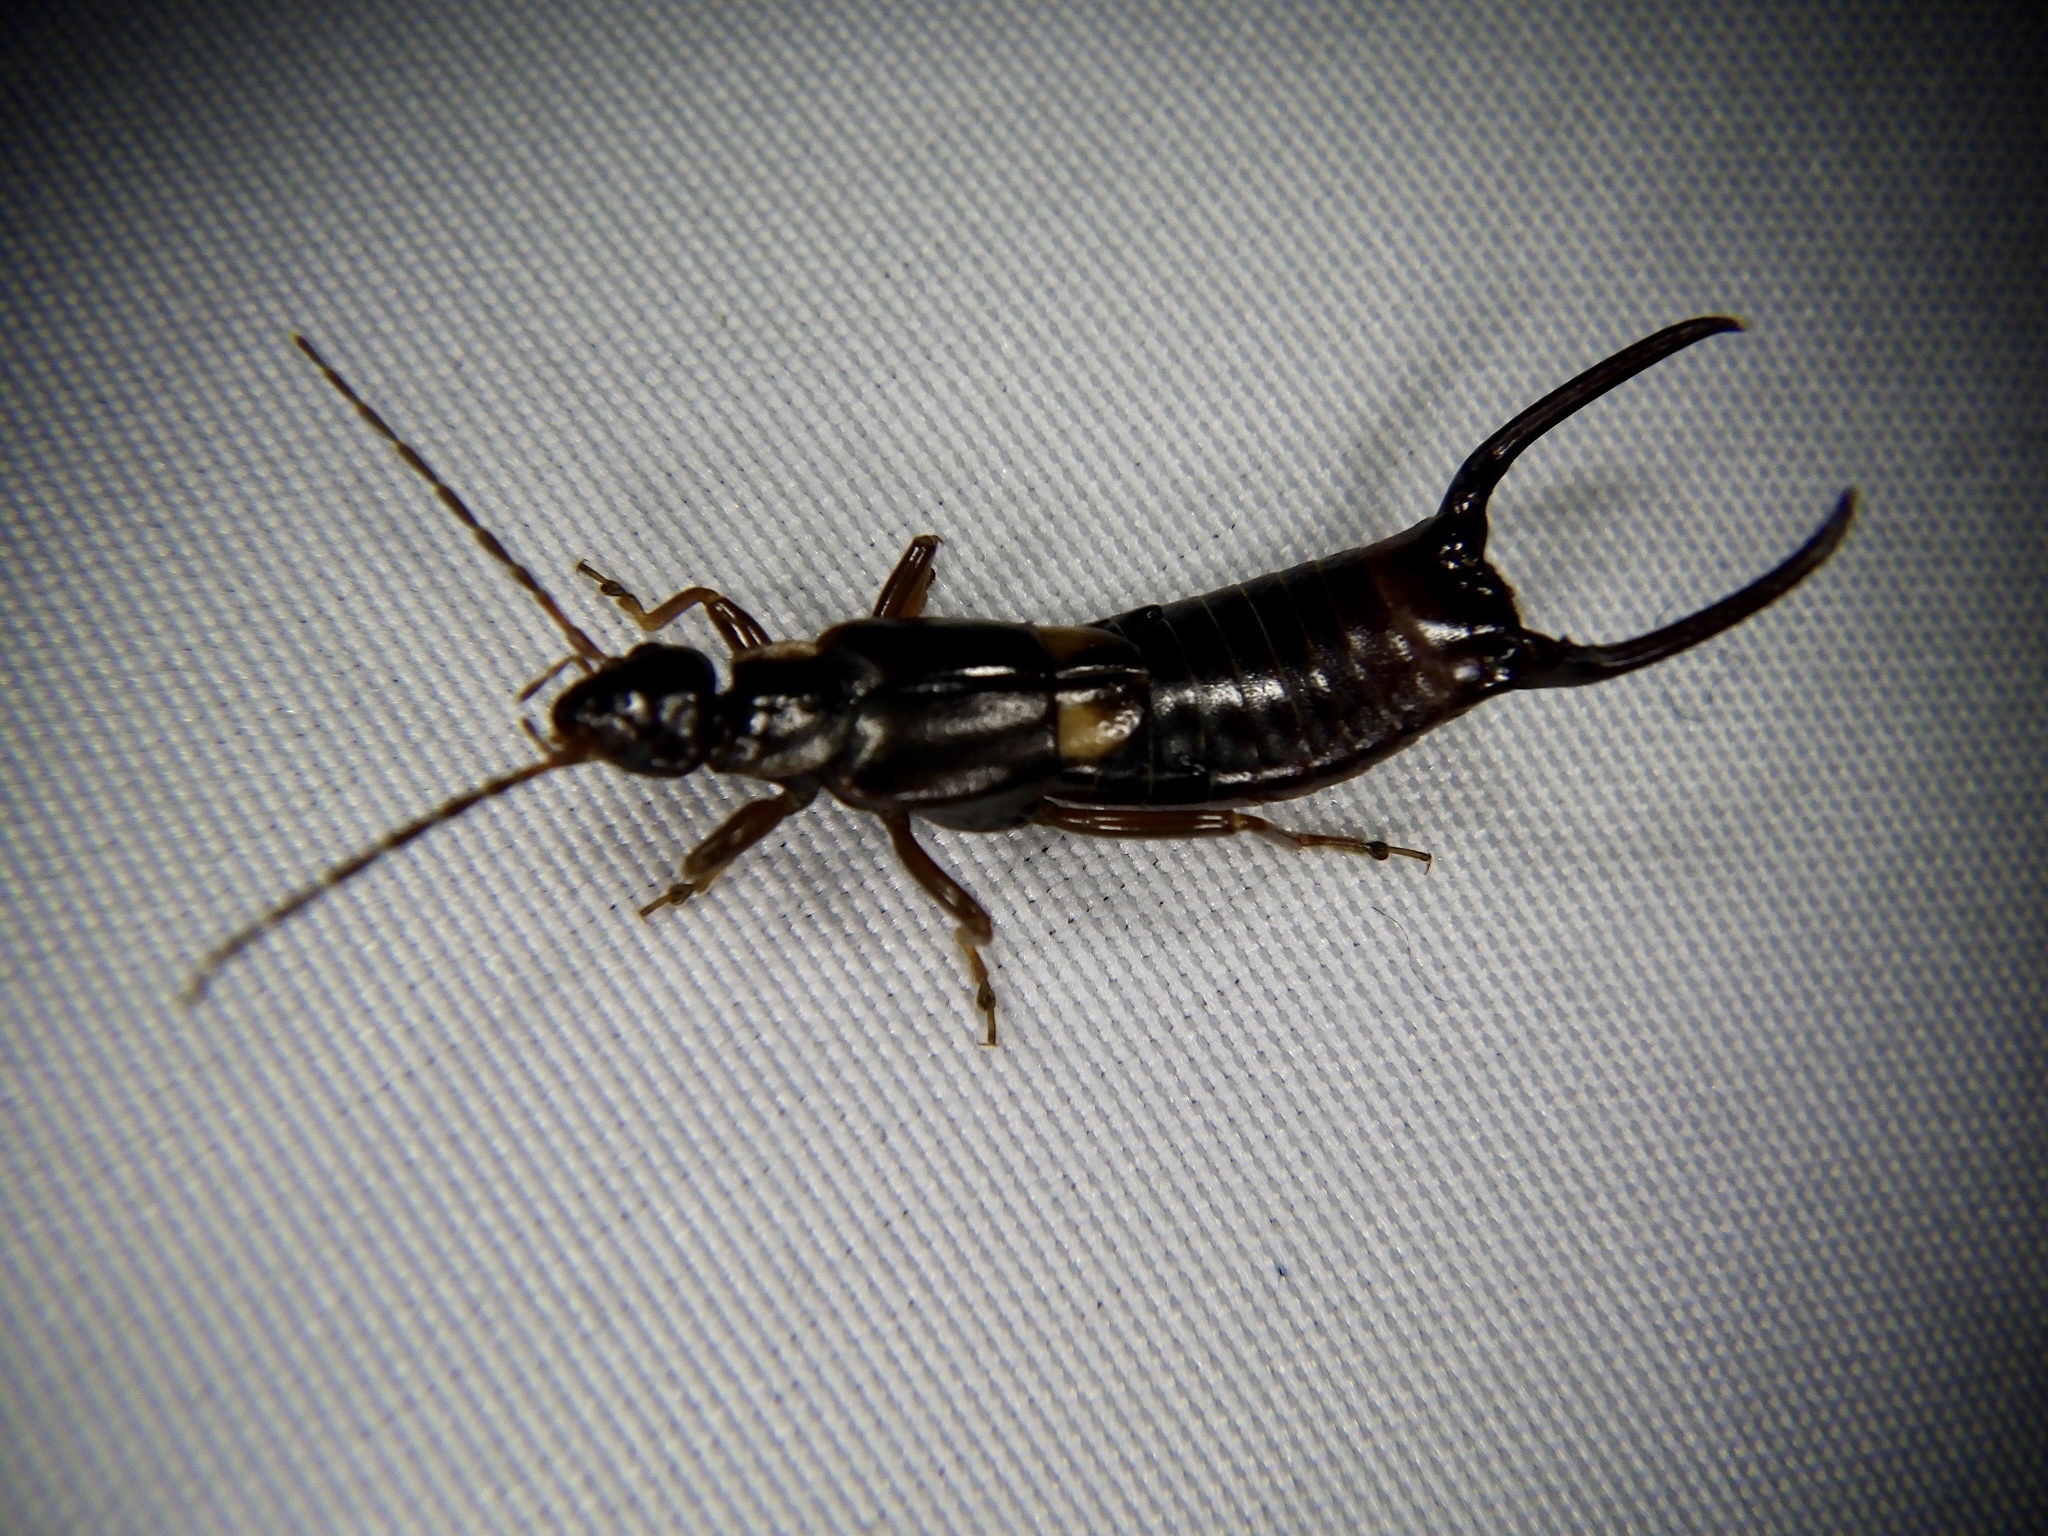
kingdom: Animalia
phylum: Arthropoda
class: Insecta
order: Dermaptera
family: Forficulidae
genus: Anechura
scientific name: Anechura harmandi
